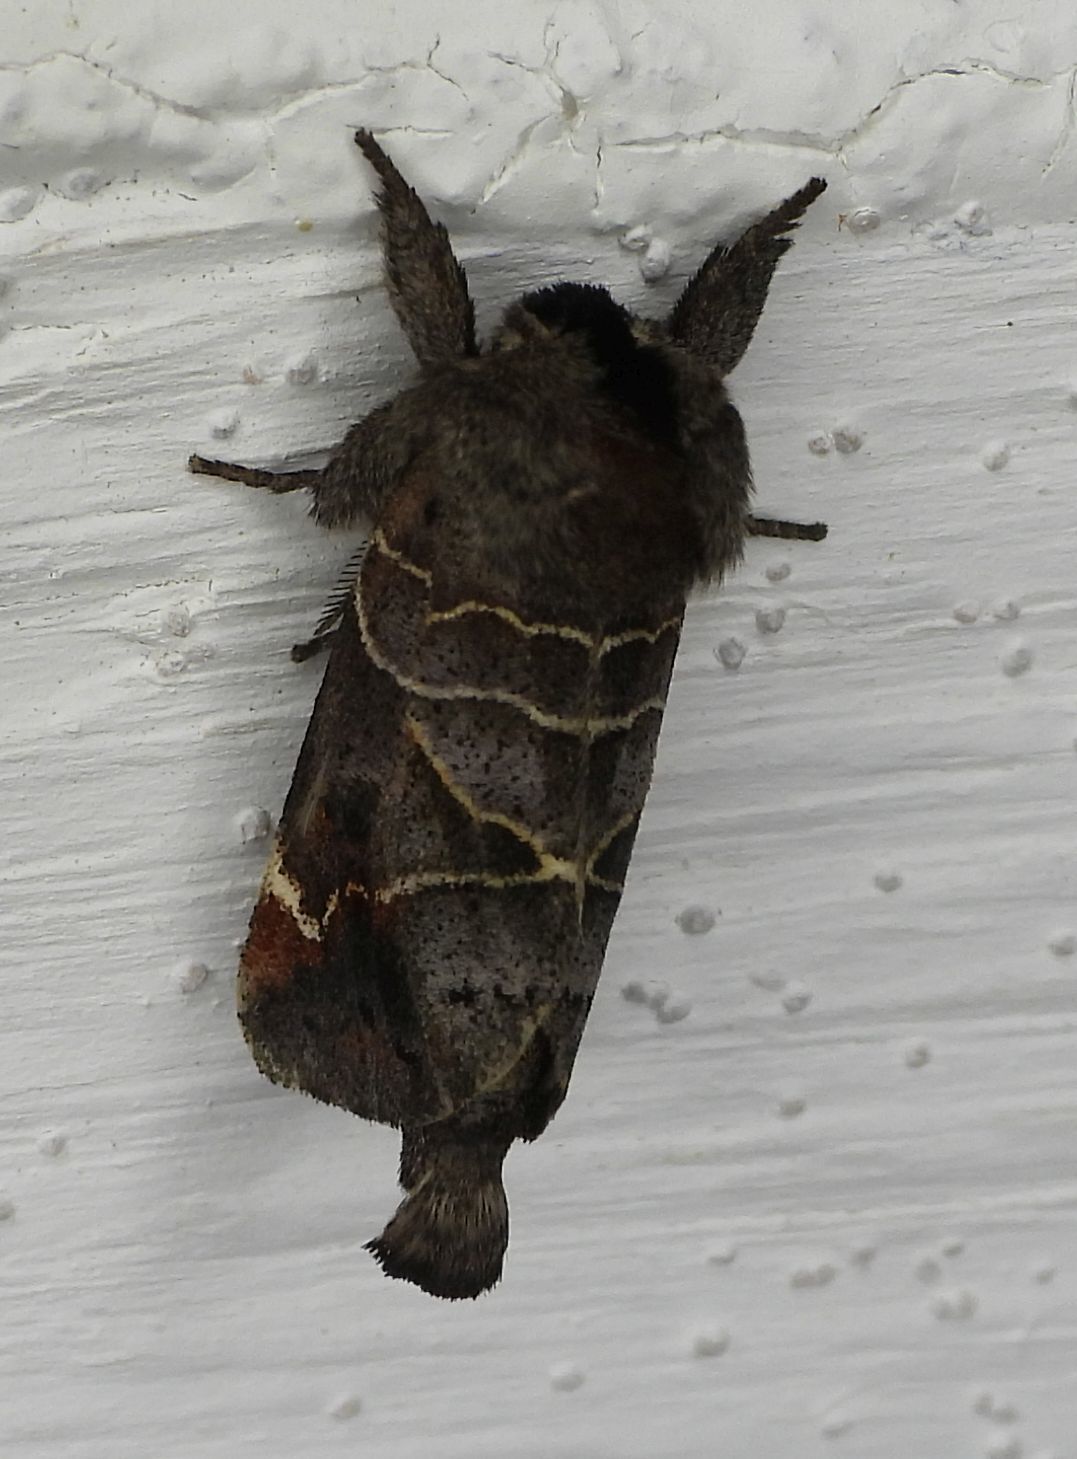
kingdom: Animalia
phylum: Arthropoda
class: Insecta
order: Lepidoptera
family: Notodontidae
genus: Clostera
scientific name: Clostera apicalis
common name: Apical prominent
